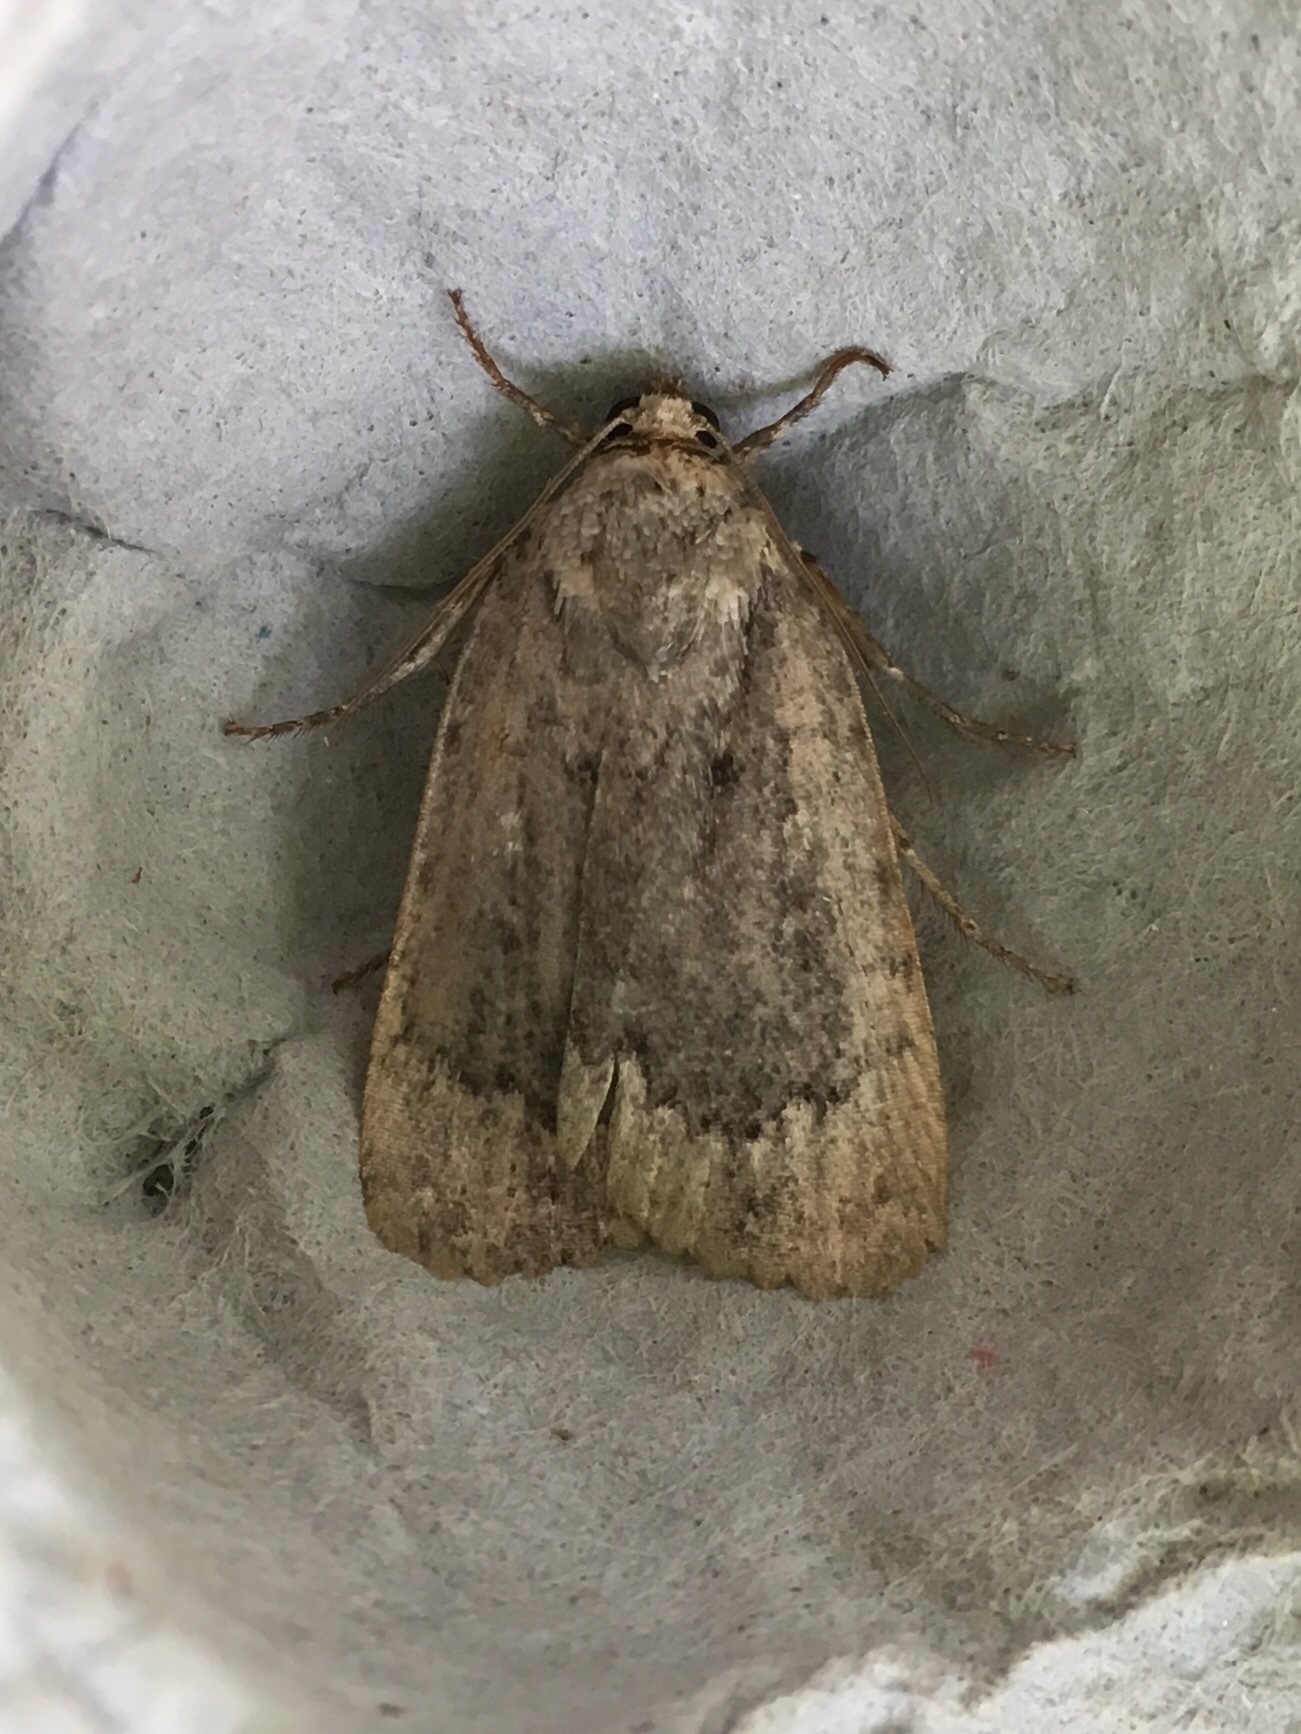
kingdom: Animalia
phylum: Arthropoda
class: Insecta
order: Lepidoptera
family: Noctuidae
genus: Amphipyra
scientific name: Amphipyra pyramidoides
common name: American copper underwing
